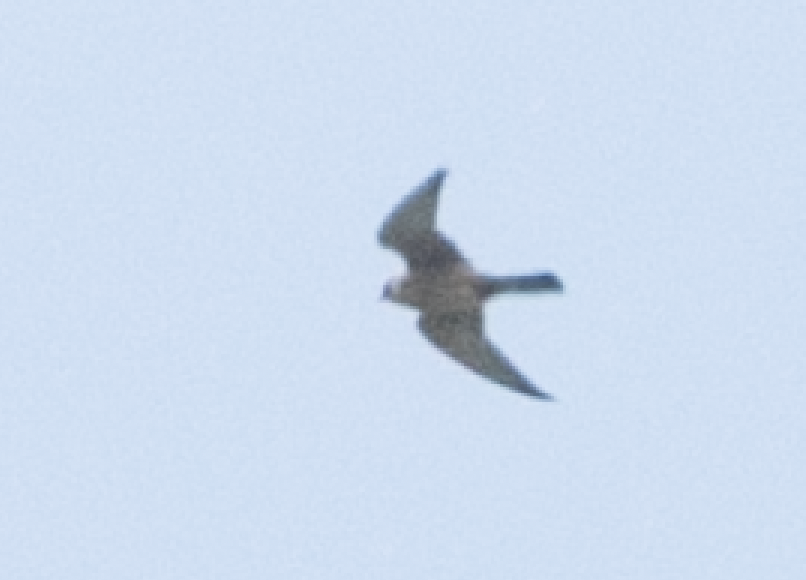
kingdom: Animalia
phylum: Chordata
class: Aves
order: Falconiformes
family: Falconidae
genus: Falco
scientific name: Falco vespertinus
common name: Red-footed falcon
